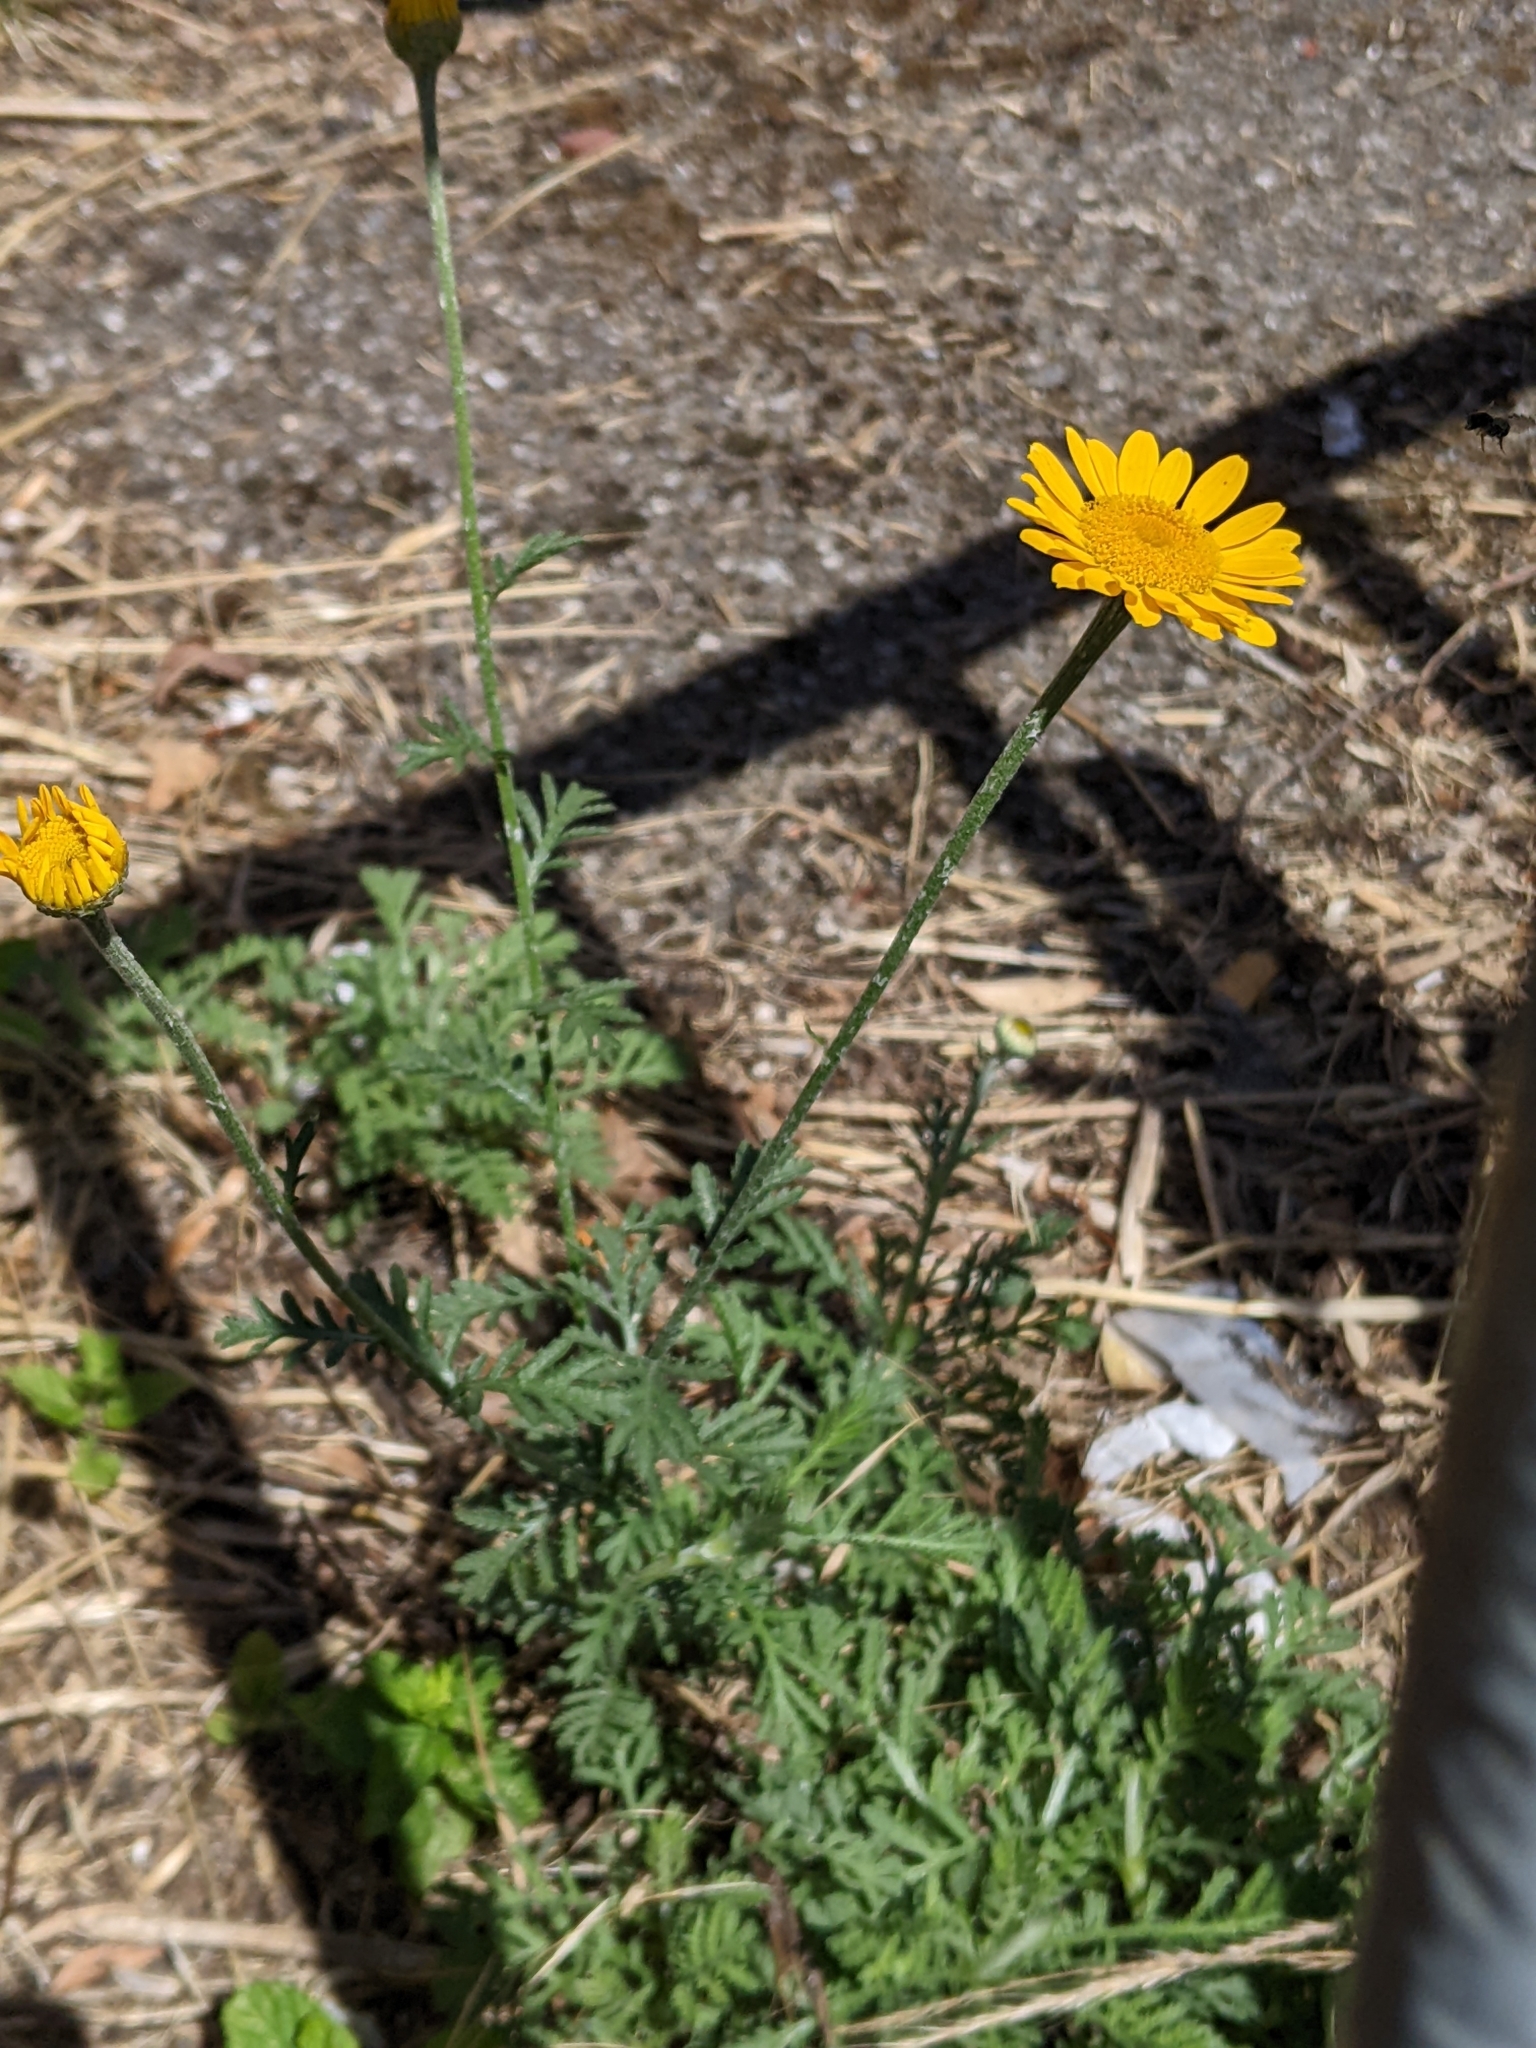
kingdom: Plantae
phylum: Tracheophyta
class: Magnoliopsida
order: Asterales
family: Asteraceae
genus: Cota
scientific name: Cota tinctoria
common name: Golden chamomile
